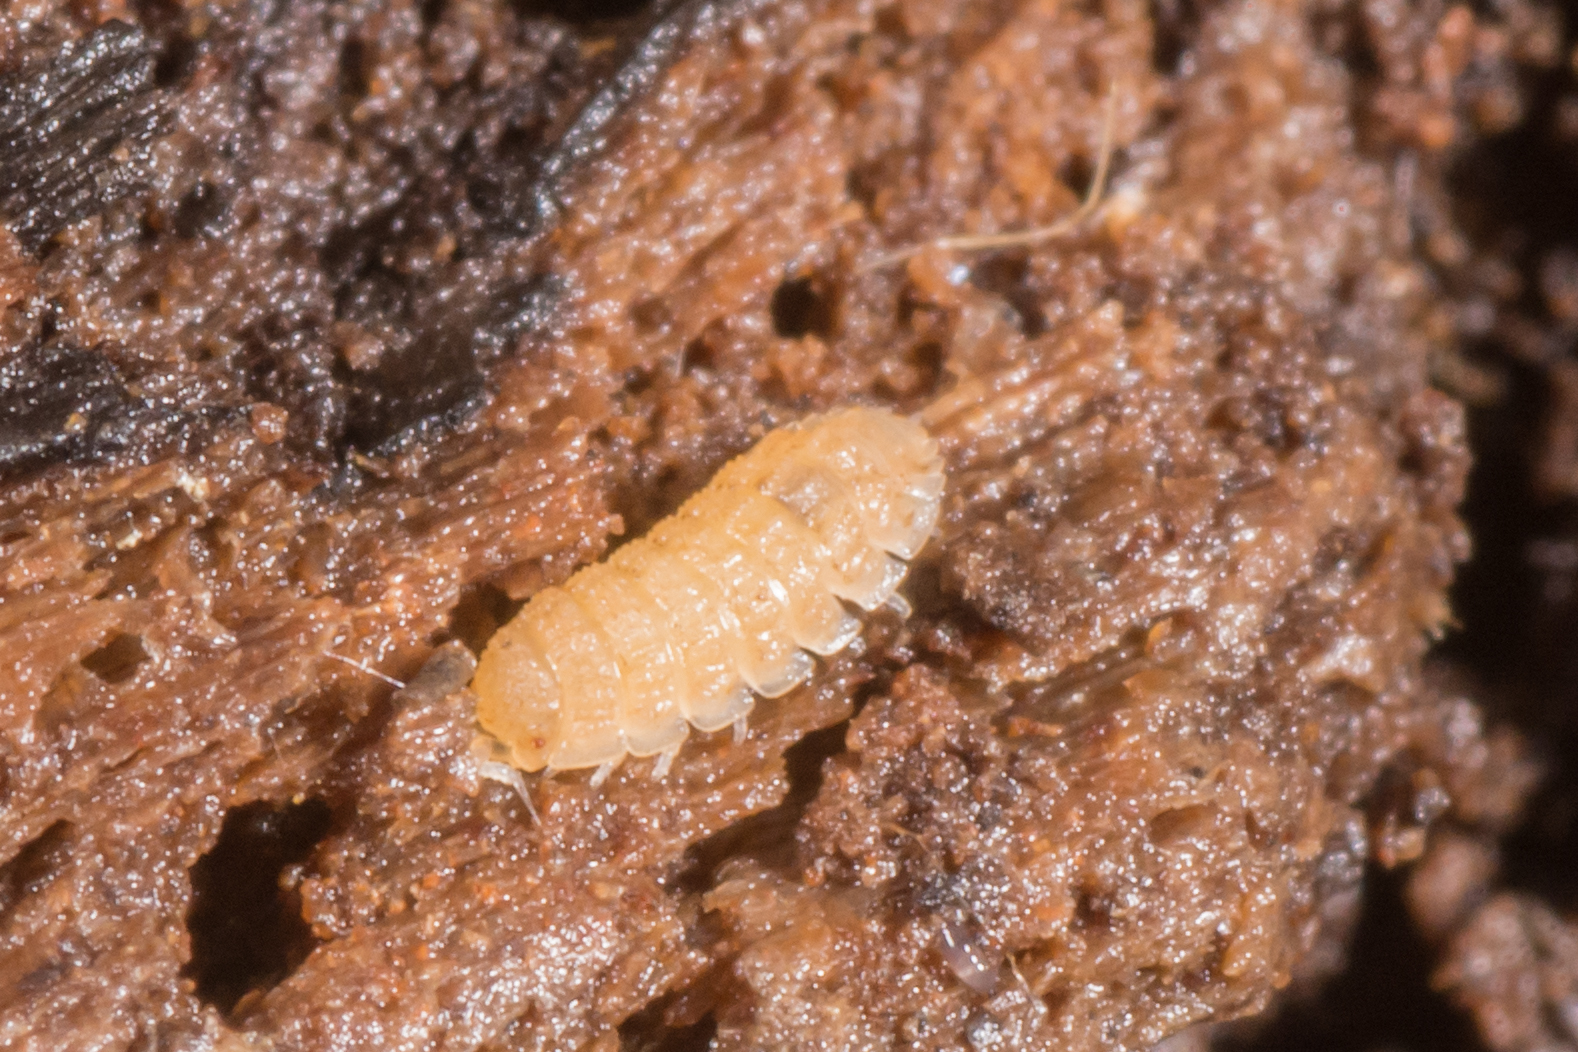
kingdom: Animalia
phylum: Arthropoda
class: Malacostraca
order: Isopoda
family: Trichoniscidae
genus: Haplophthalmus
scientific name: Haplophthalmus danicus
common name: Pillbug
